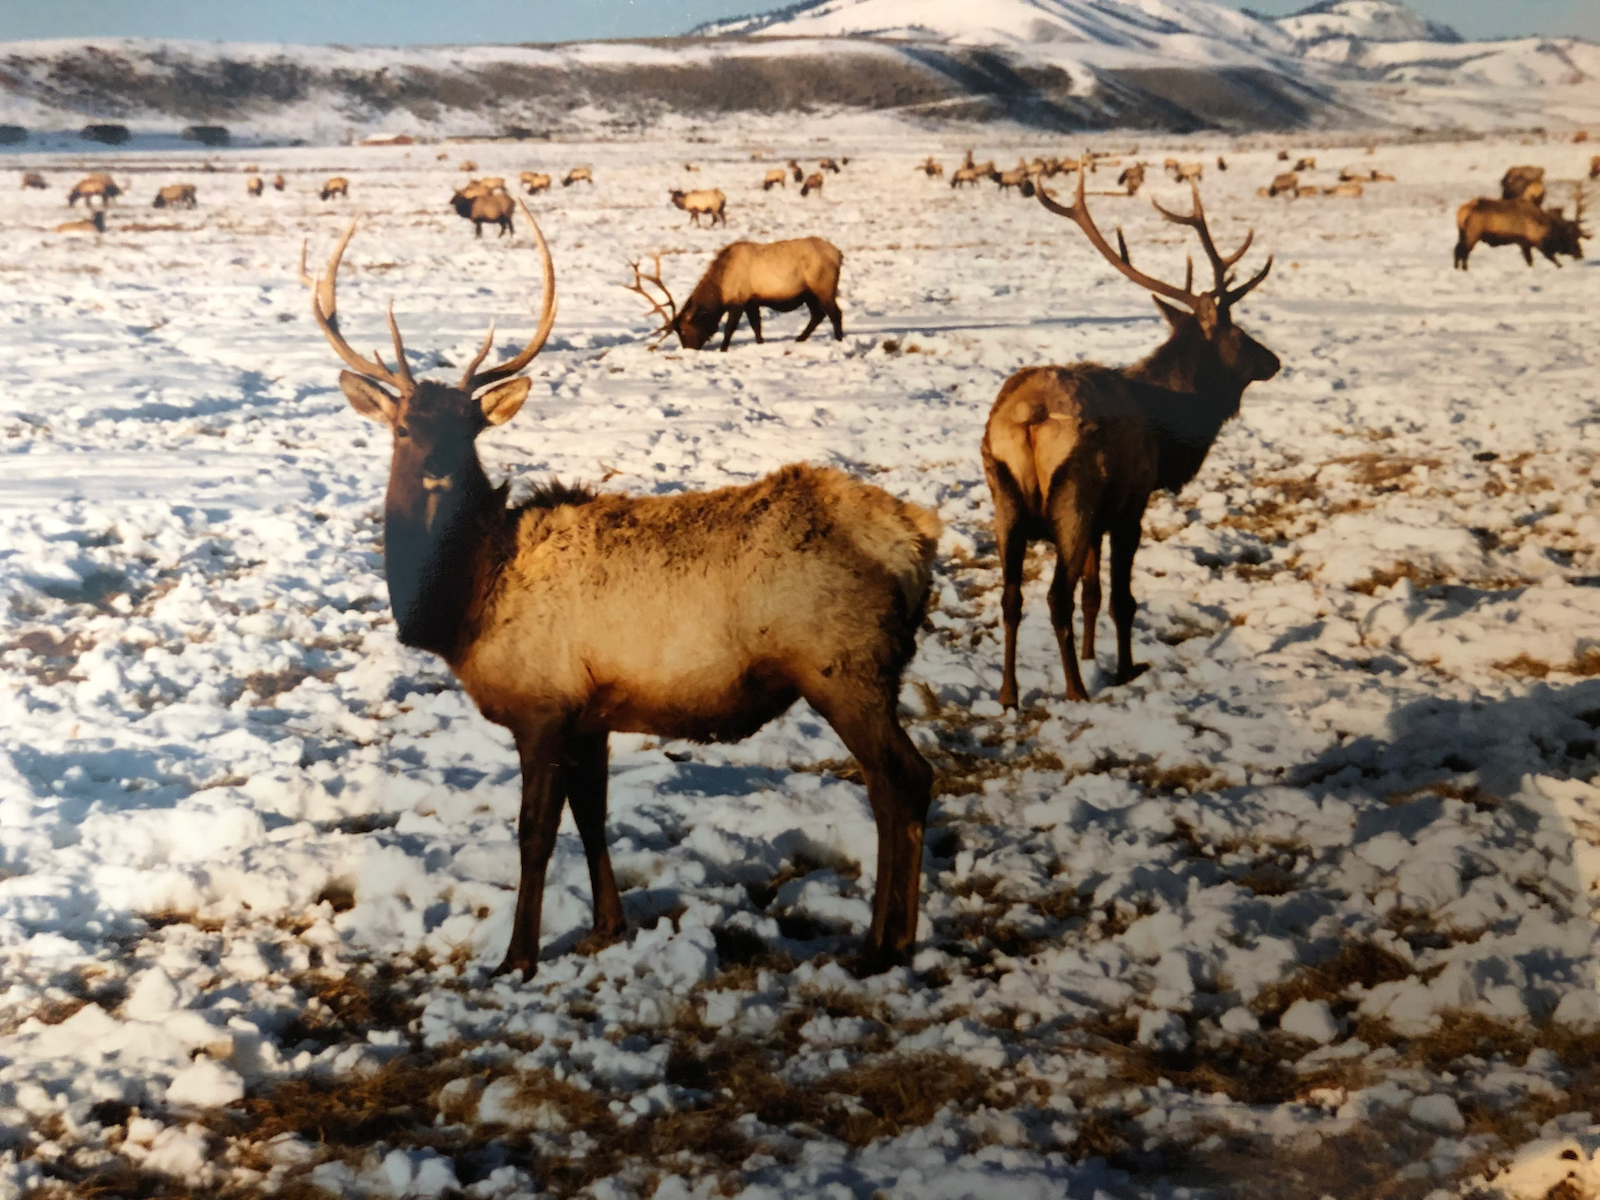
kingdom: Animalia
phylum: Chordata
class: Mammalia
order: Artiodactyla
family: Cervidae
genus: Cervus
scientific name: Cervus elaphus
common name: Red deer
